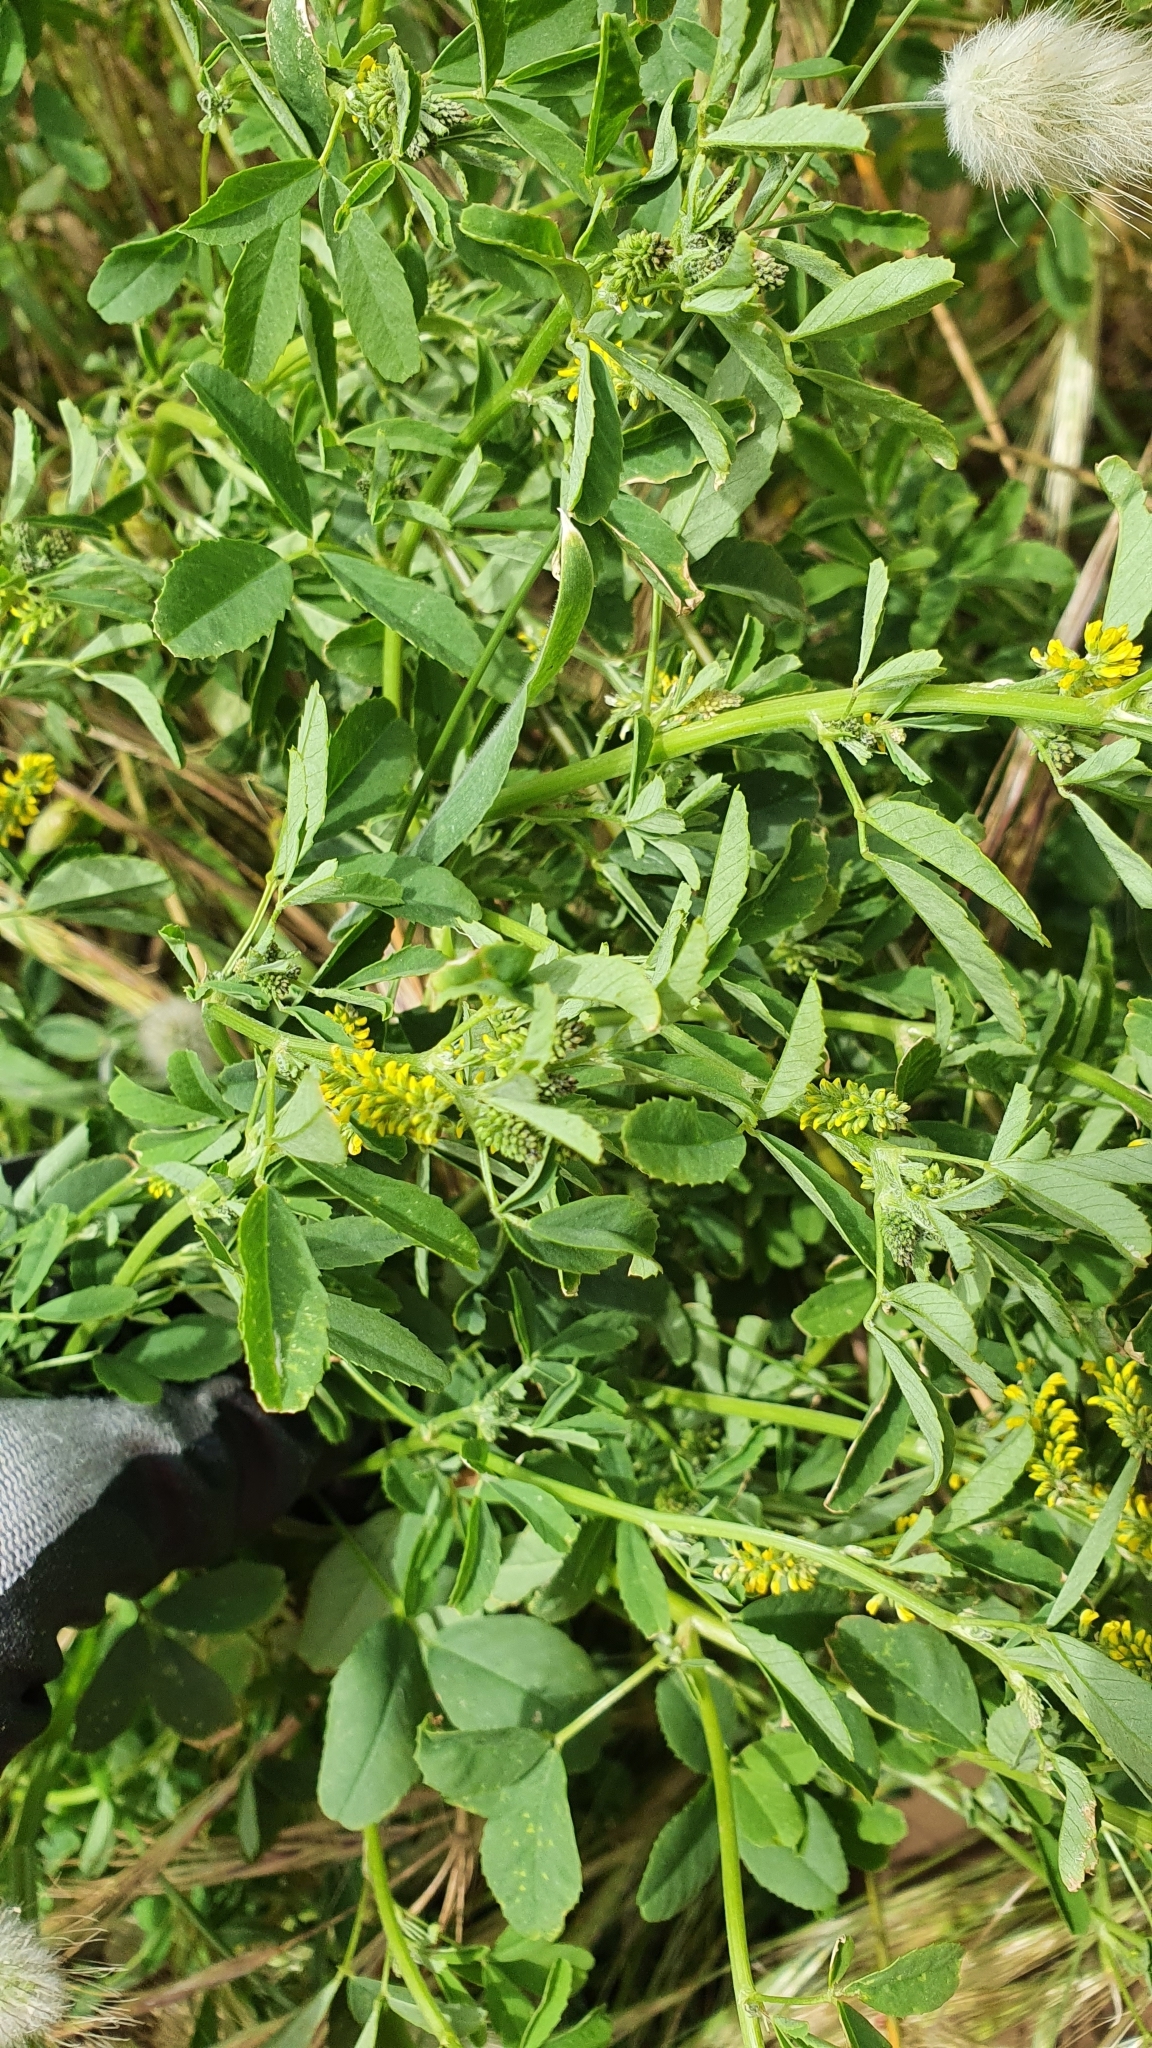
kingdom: Plantae
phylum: Tracheophyta
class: Magnoliopsida
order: Fabales
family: Fabaceae
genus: Melilotus
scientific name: Melilotus indicus
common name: Small melilot
